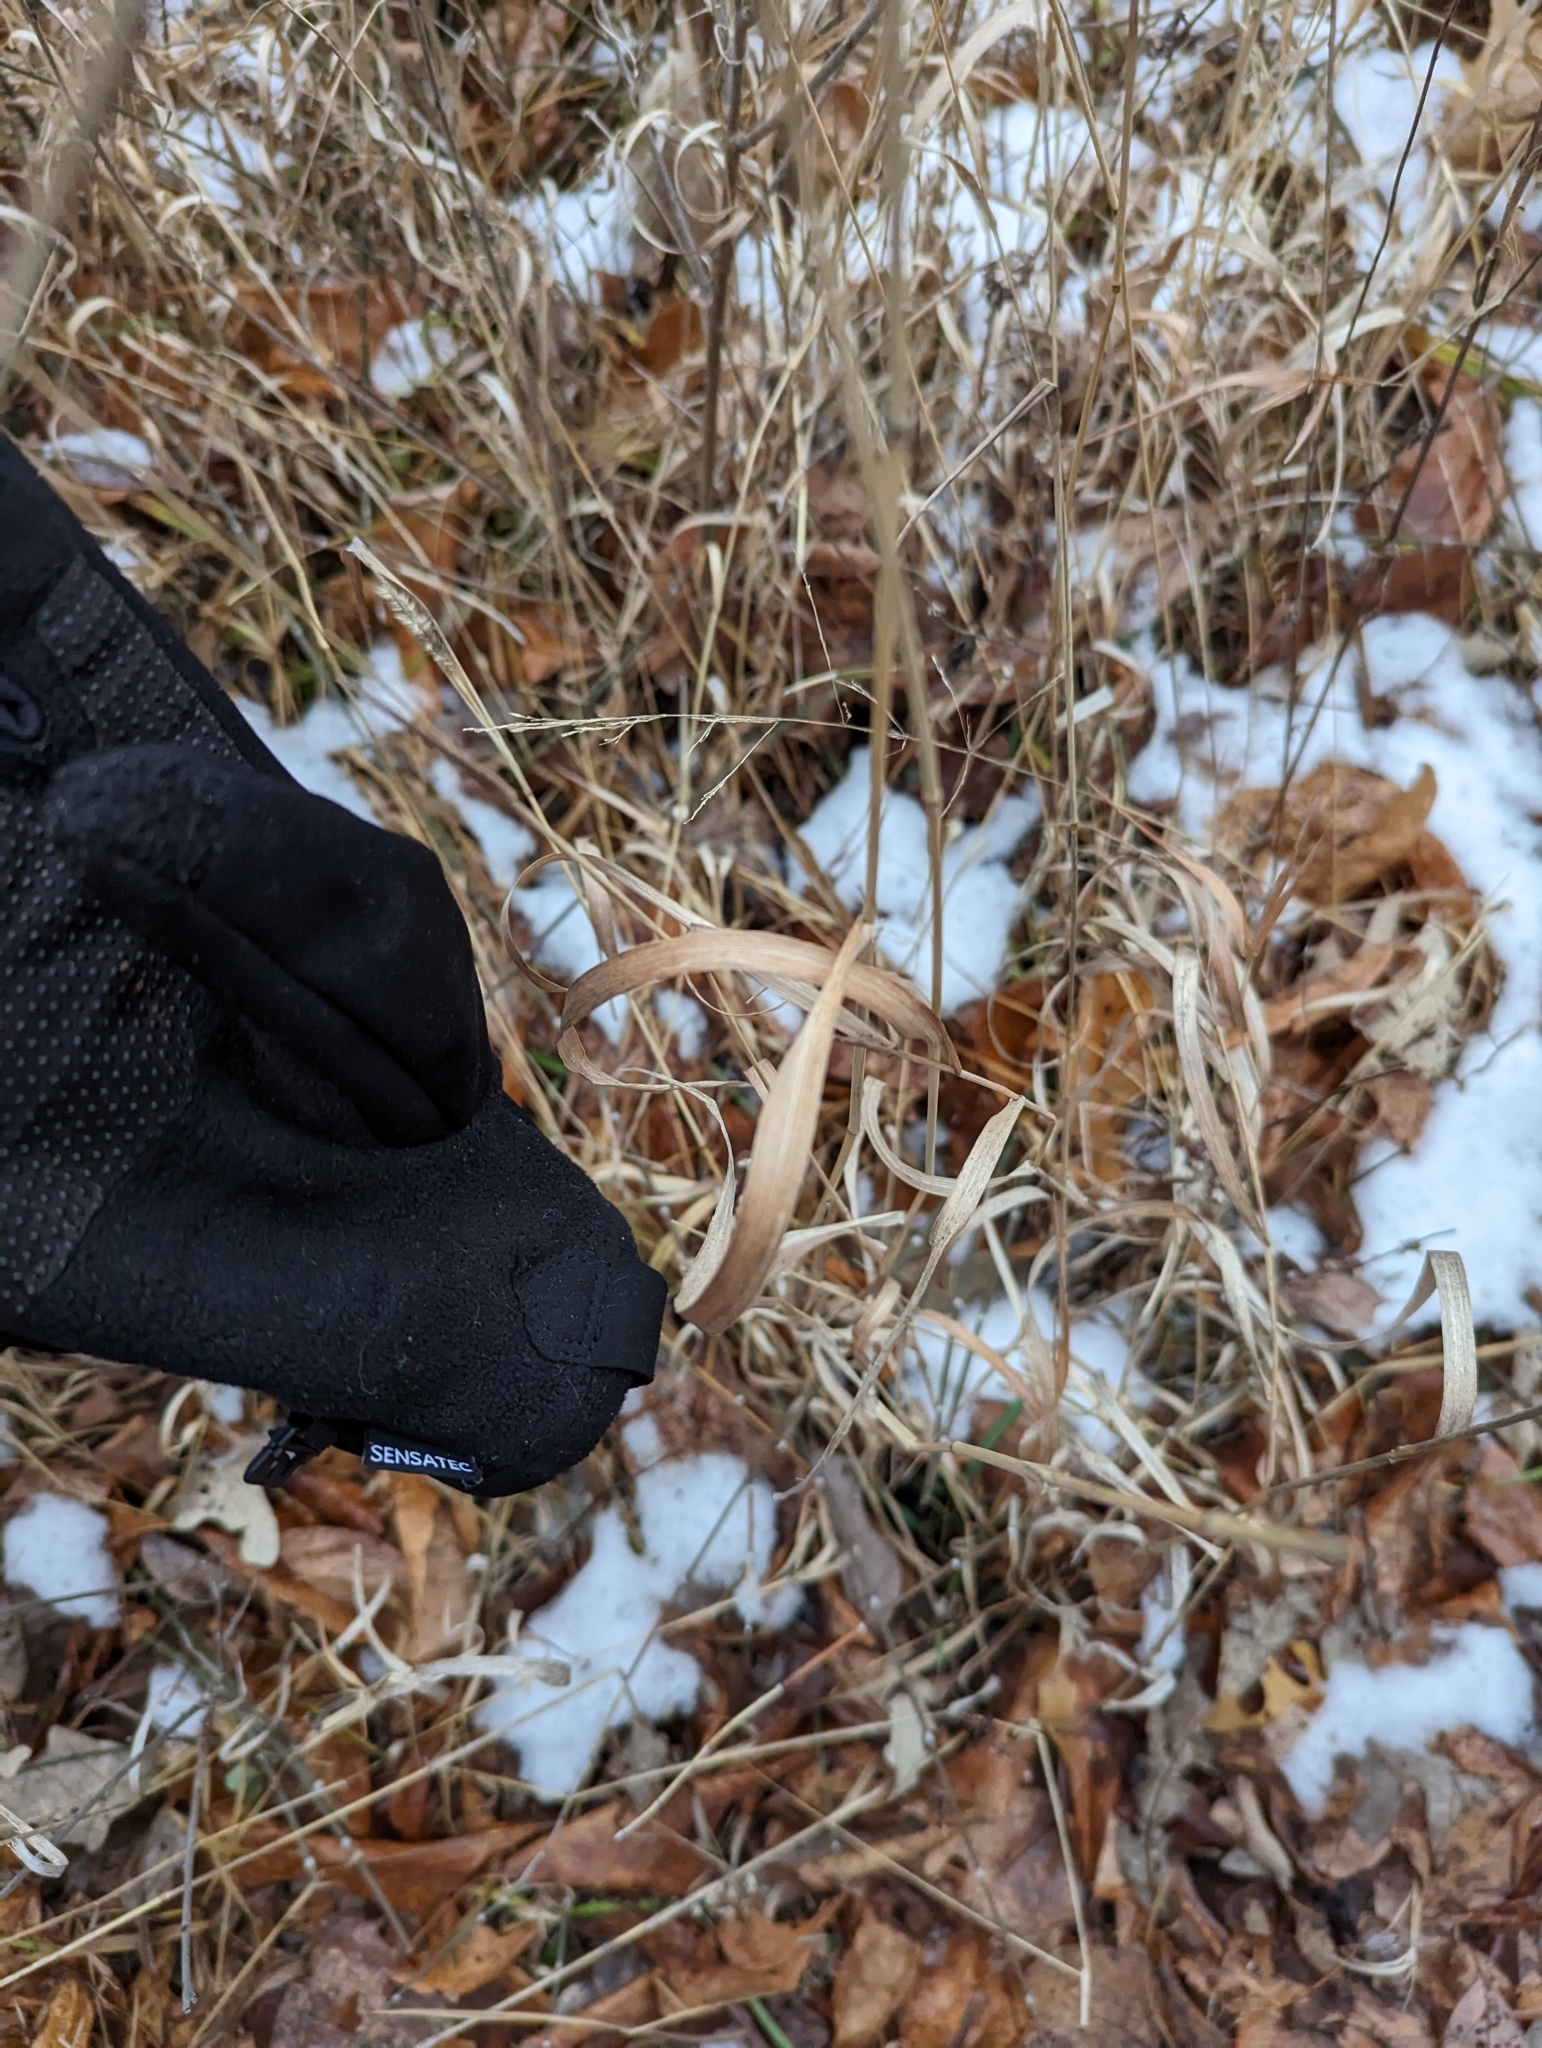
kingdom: Plantae
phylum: Tracheophyta
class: Liliopsida
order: Poales
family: Poaceae
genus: Phleum
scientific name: Phleum pratense
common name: Timothy grass
